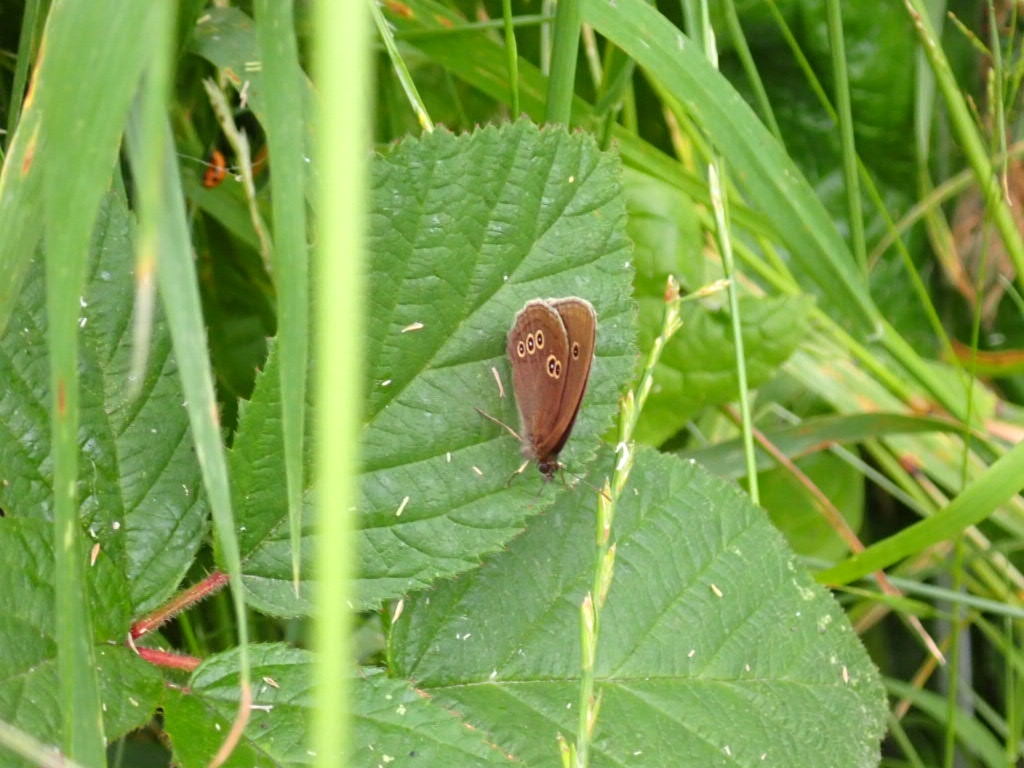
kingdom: Animalia
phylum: Arthropoda
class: Insecta
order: Lepidoptera
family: Nymphalidae
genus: Aphantopus
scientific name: Aphantopus hyperantus
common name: Ringlet
